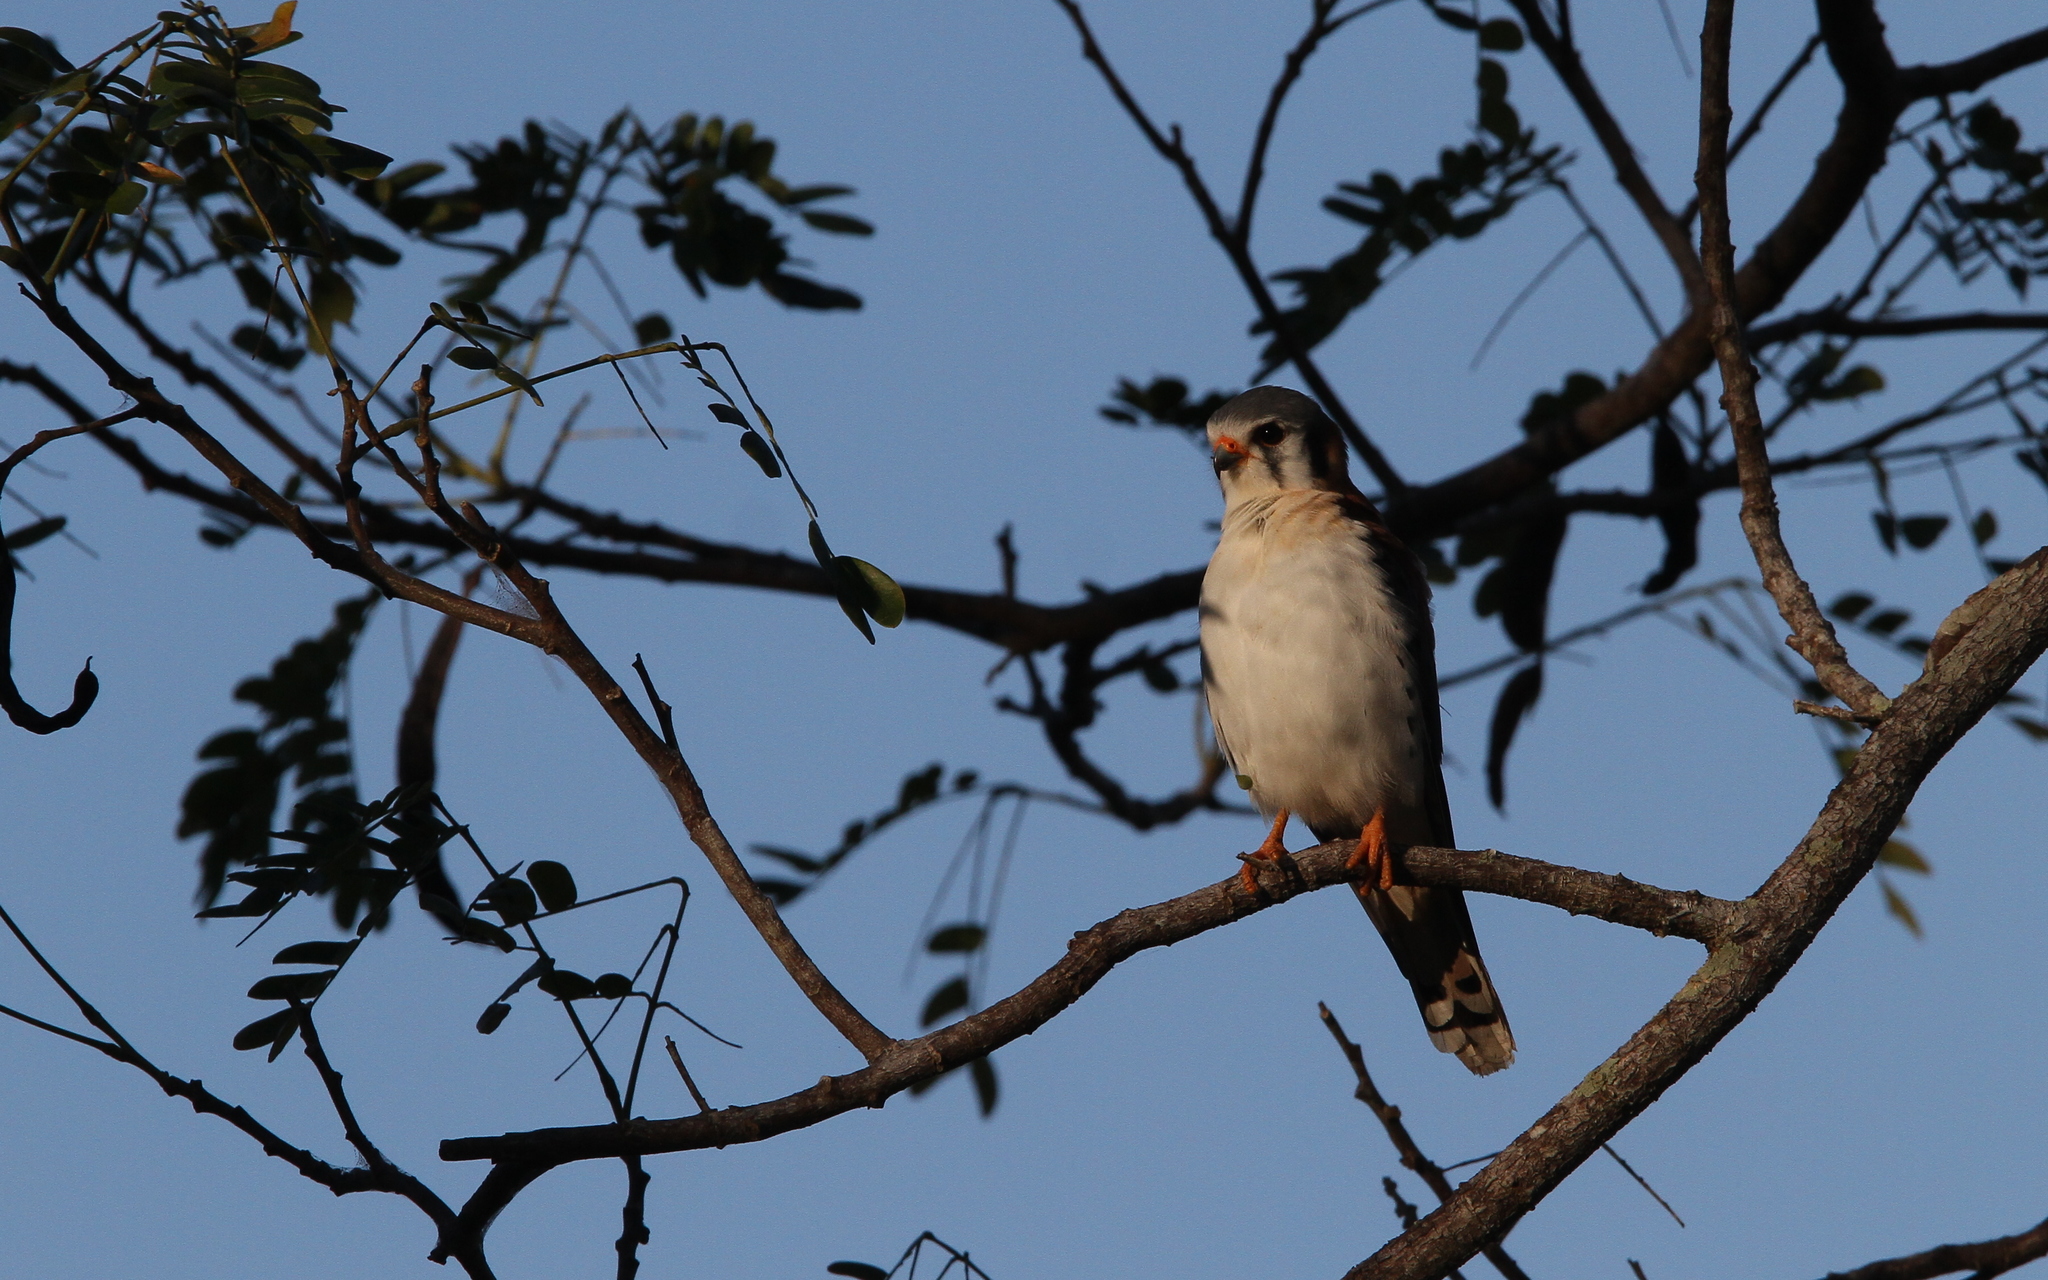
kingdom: Animalia
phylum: Chordata
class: Aves
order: Falconiformes
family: Falconidae
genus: Falco
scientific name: Falco sparverius
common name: American kestrel
